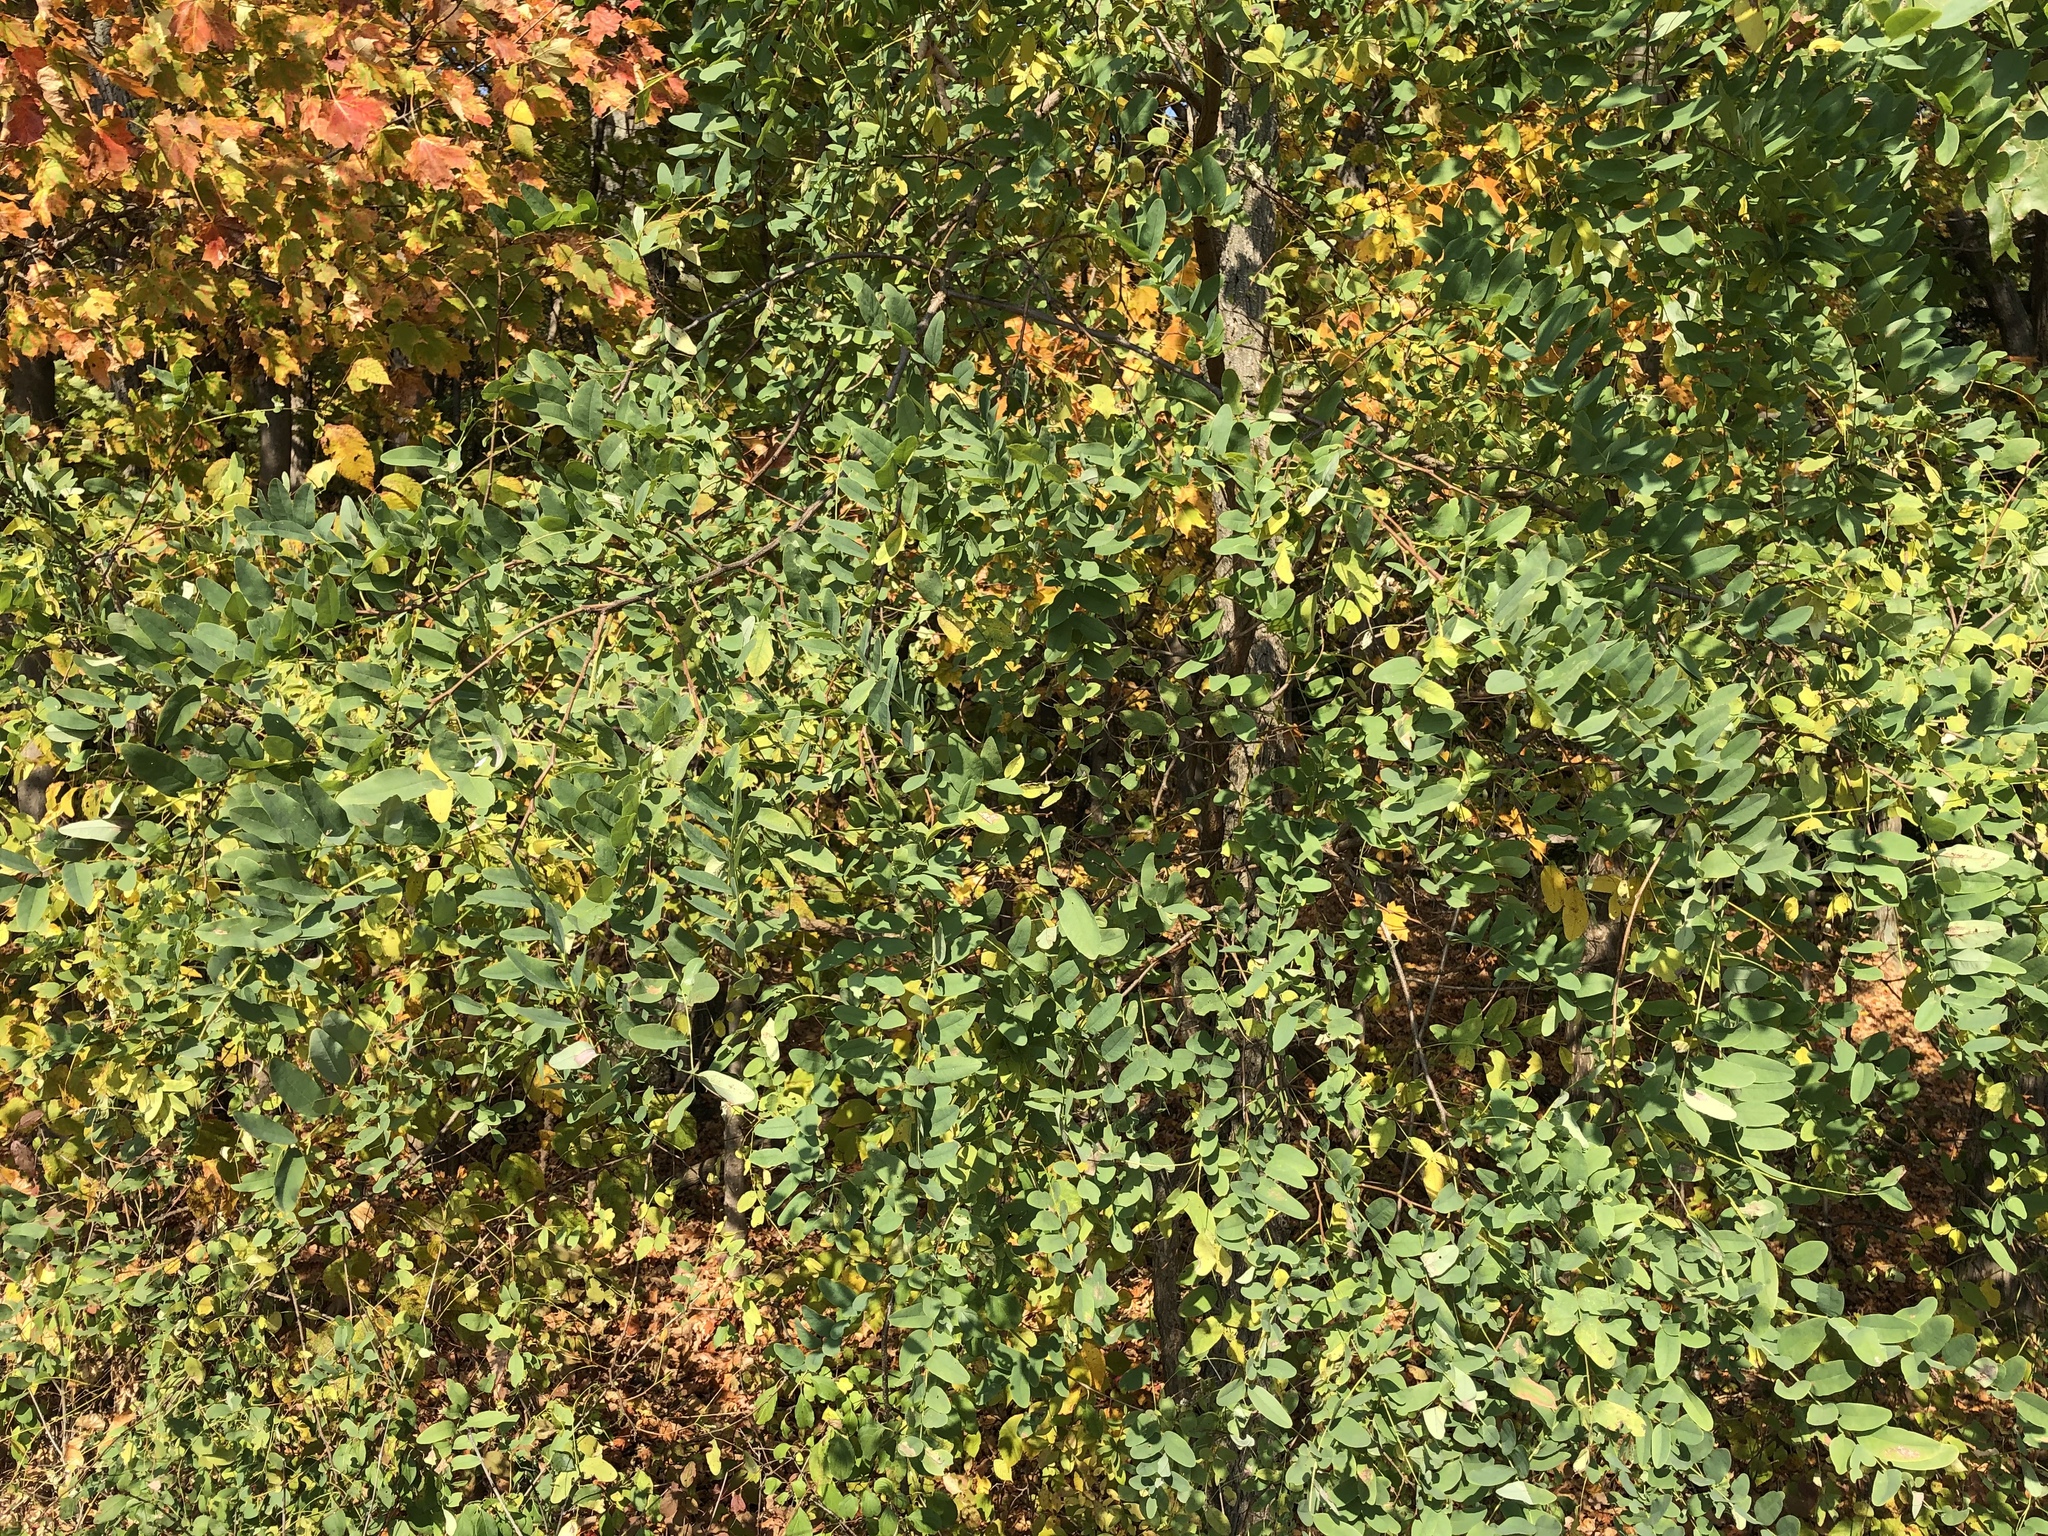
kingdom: Plantae
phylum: Tracheophyta
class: Magnoliopsida
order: Fabales
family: Fabaceae
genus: Robinia
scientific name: Robinia pseudoacacia
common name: Black locust
